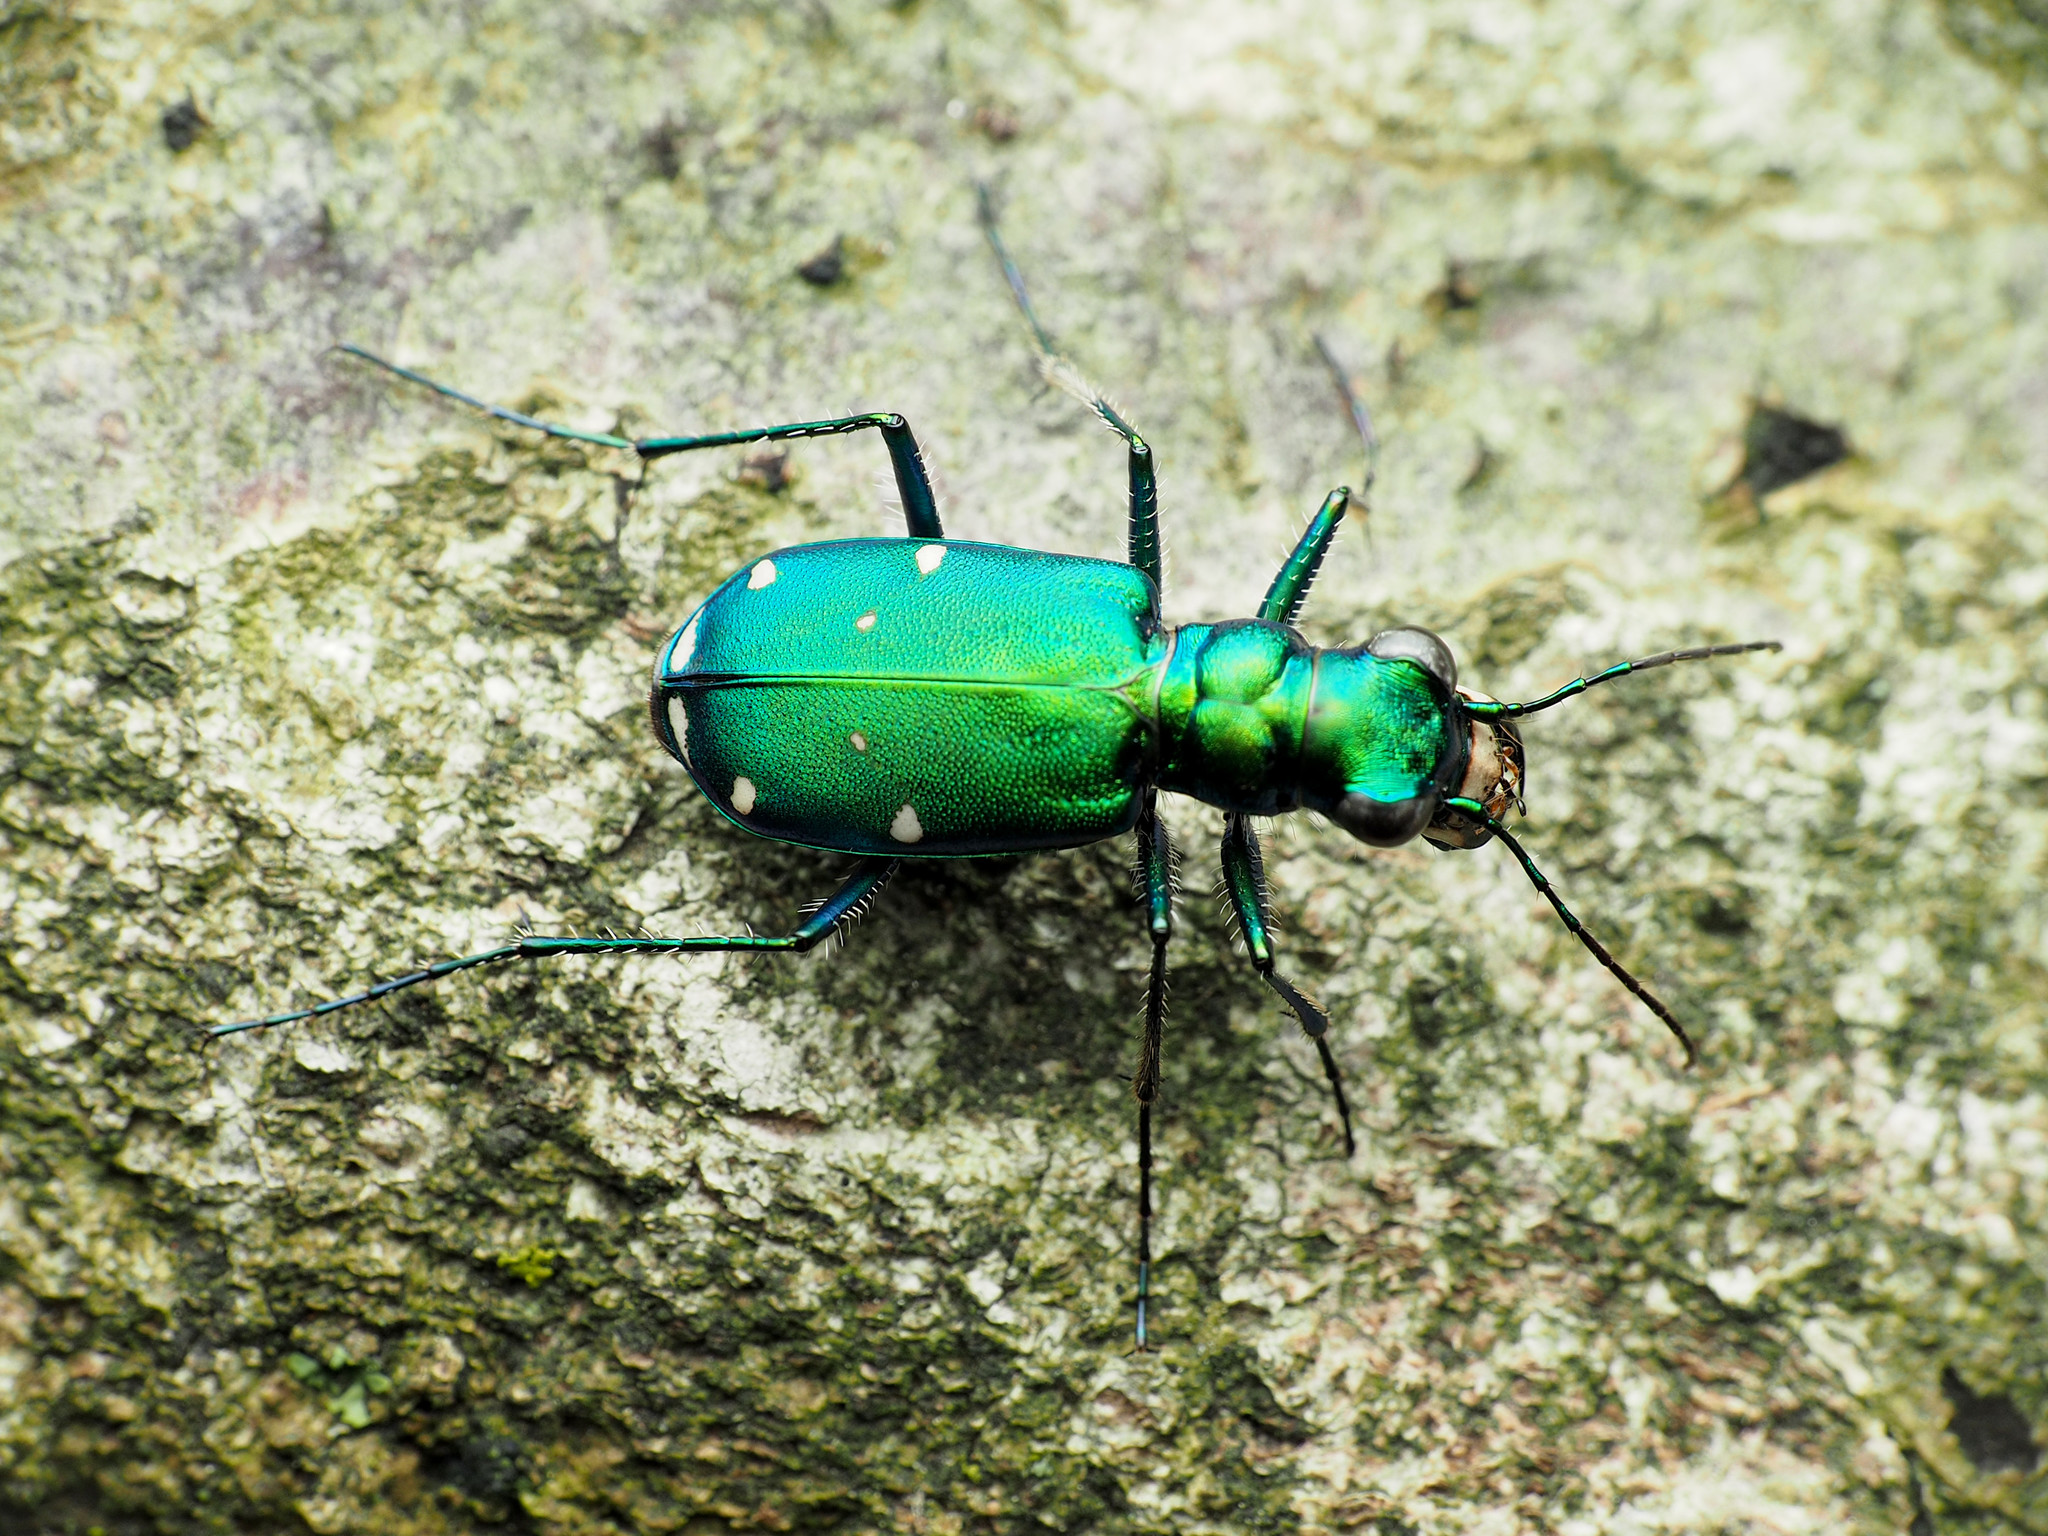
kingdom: Animalia
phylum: Arthropoda
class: Insecta
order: Coleoptera
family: Carabidae
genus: Cicindela
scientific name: Cicindela sexguttata
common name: Six-spotted tiger beetle
